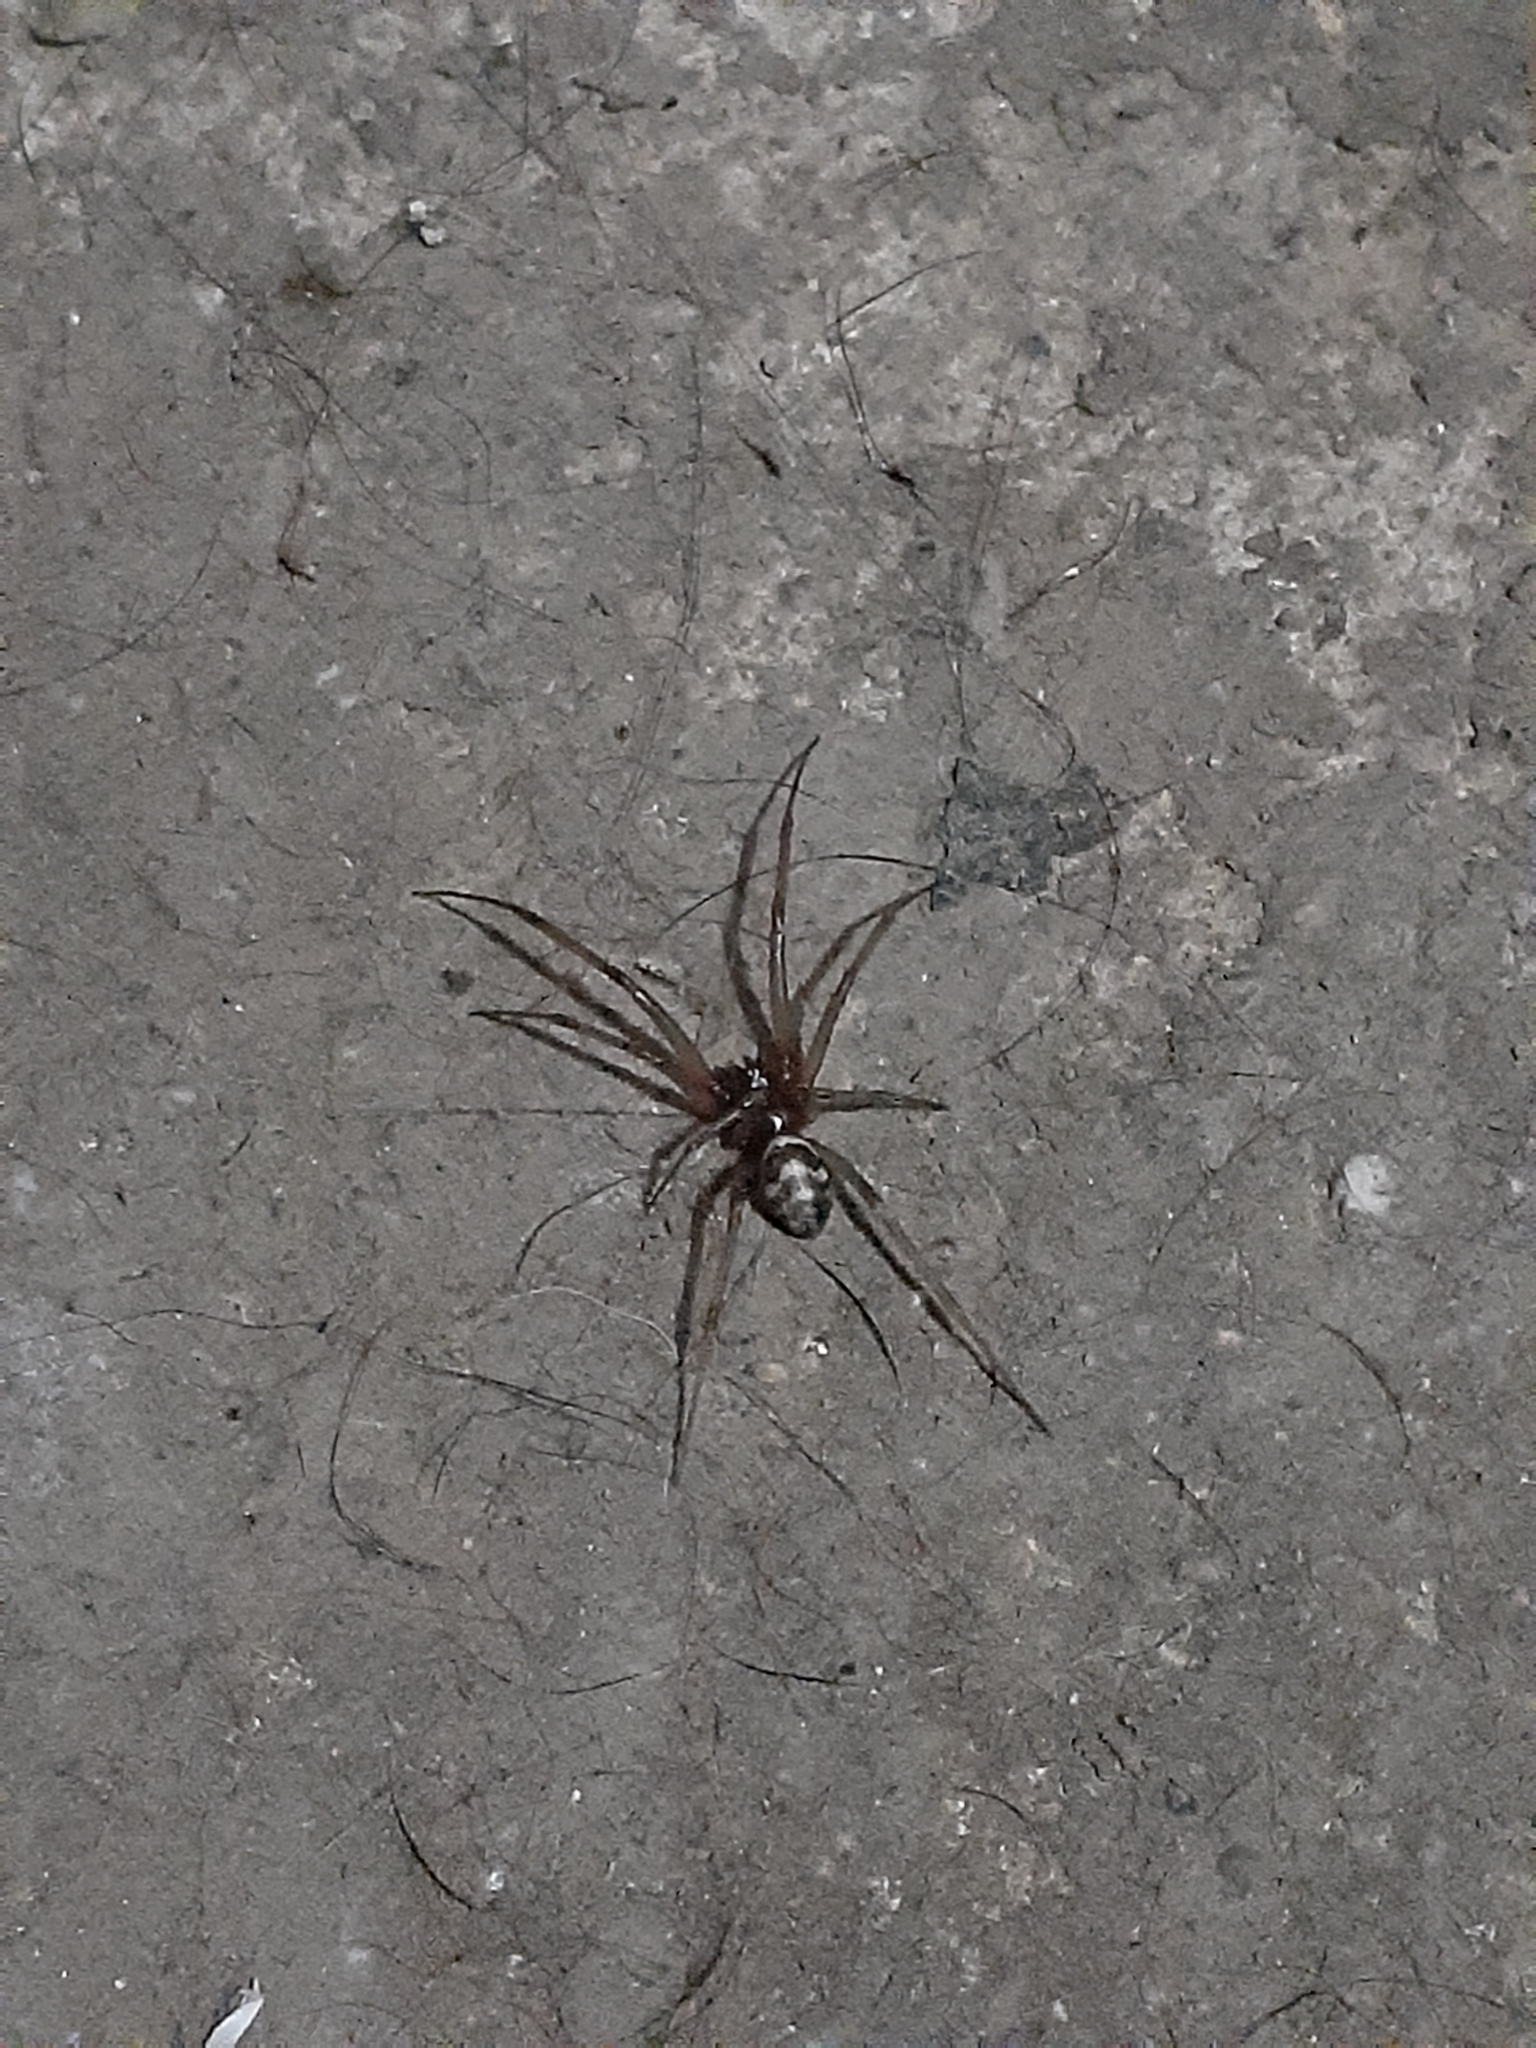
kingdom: Animalia
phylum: Arthropoda
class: Arachnida
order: Araneae
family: Theridiidae
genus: Steatoda
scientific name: Steatoda grossa
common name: False black widow
